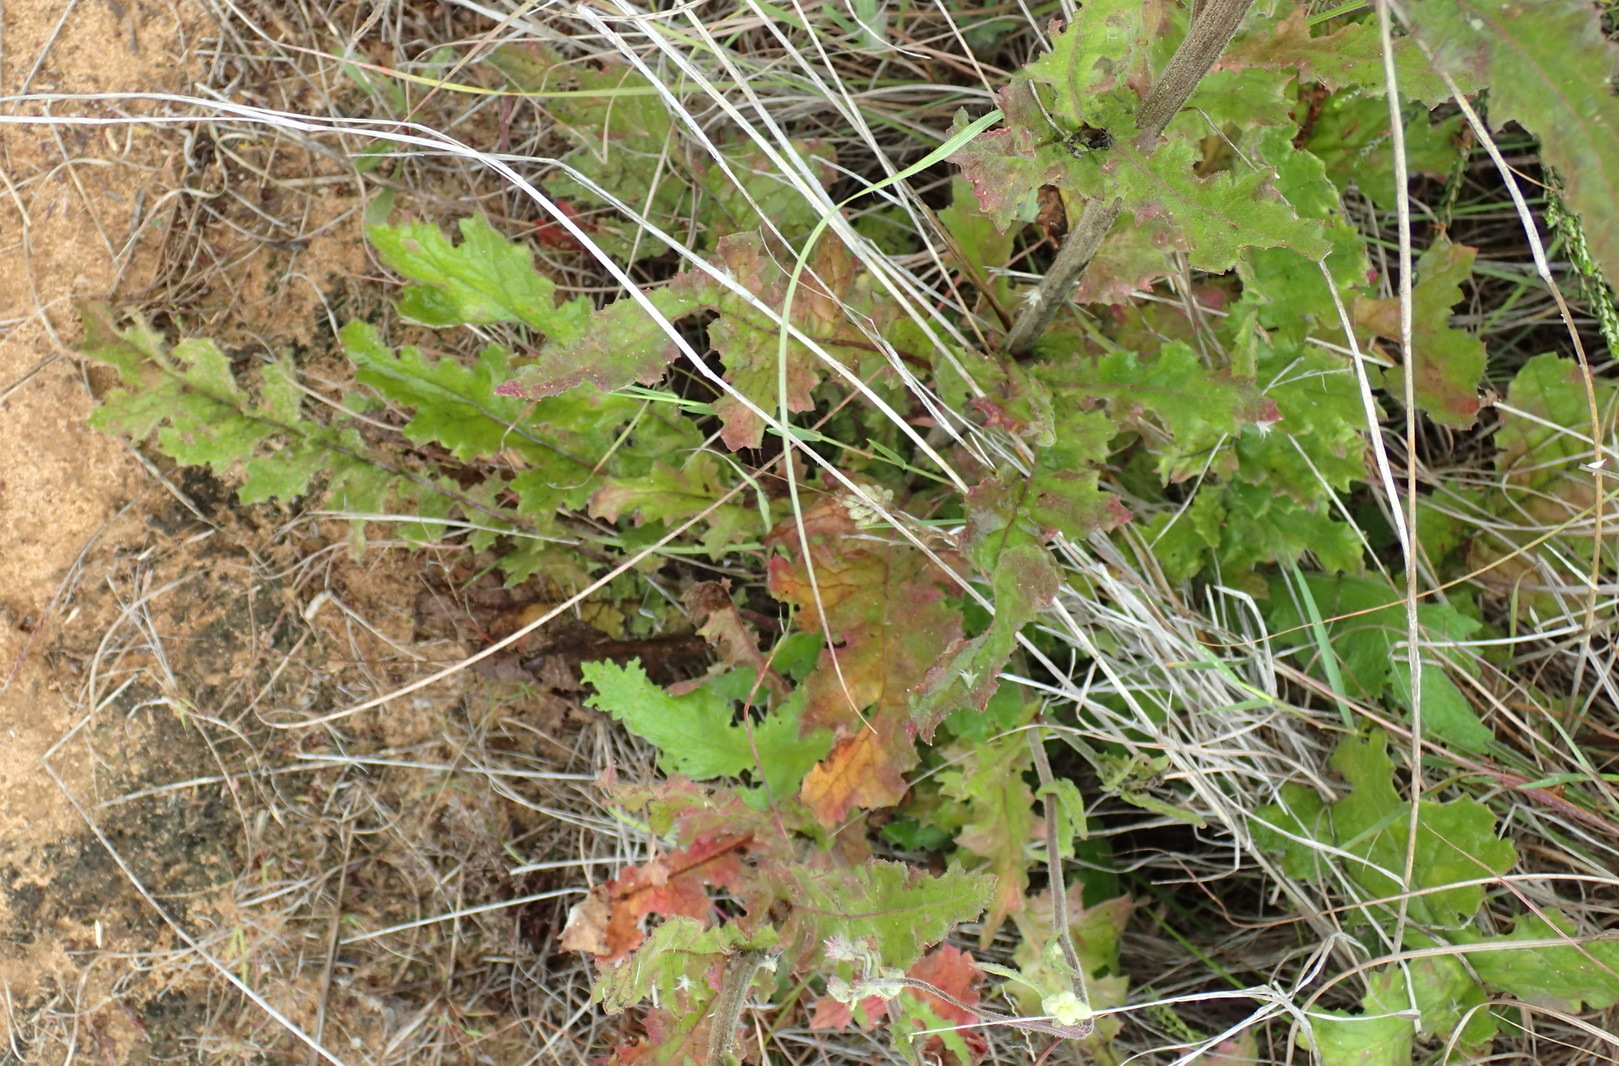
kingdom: Plantae
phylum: Tracheophyta
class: Magnoliopsida
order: Asterales
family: Asteraceae
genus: Senecio
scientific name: Senecio purpureus
